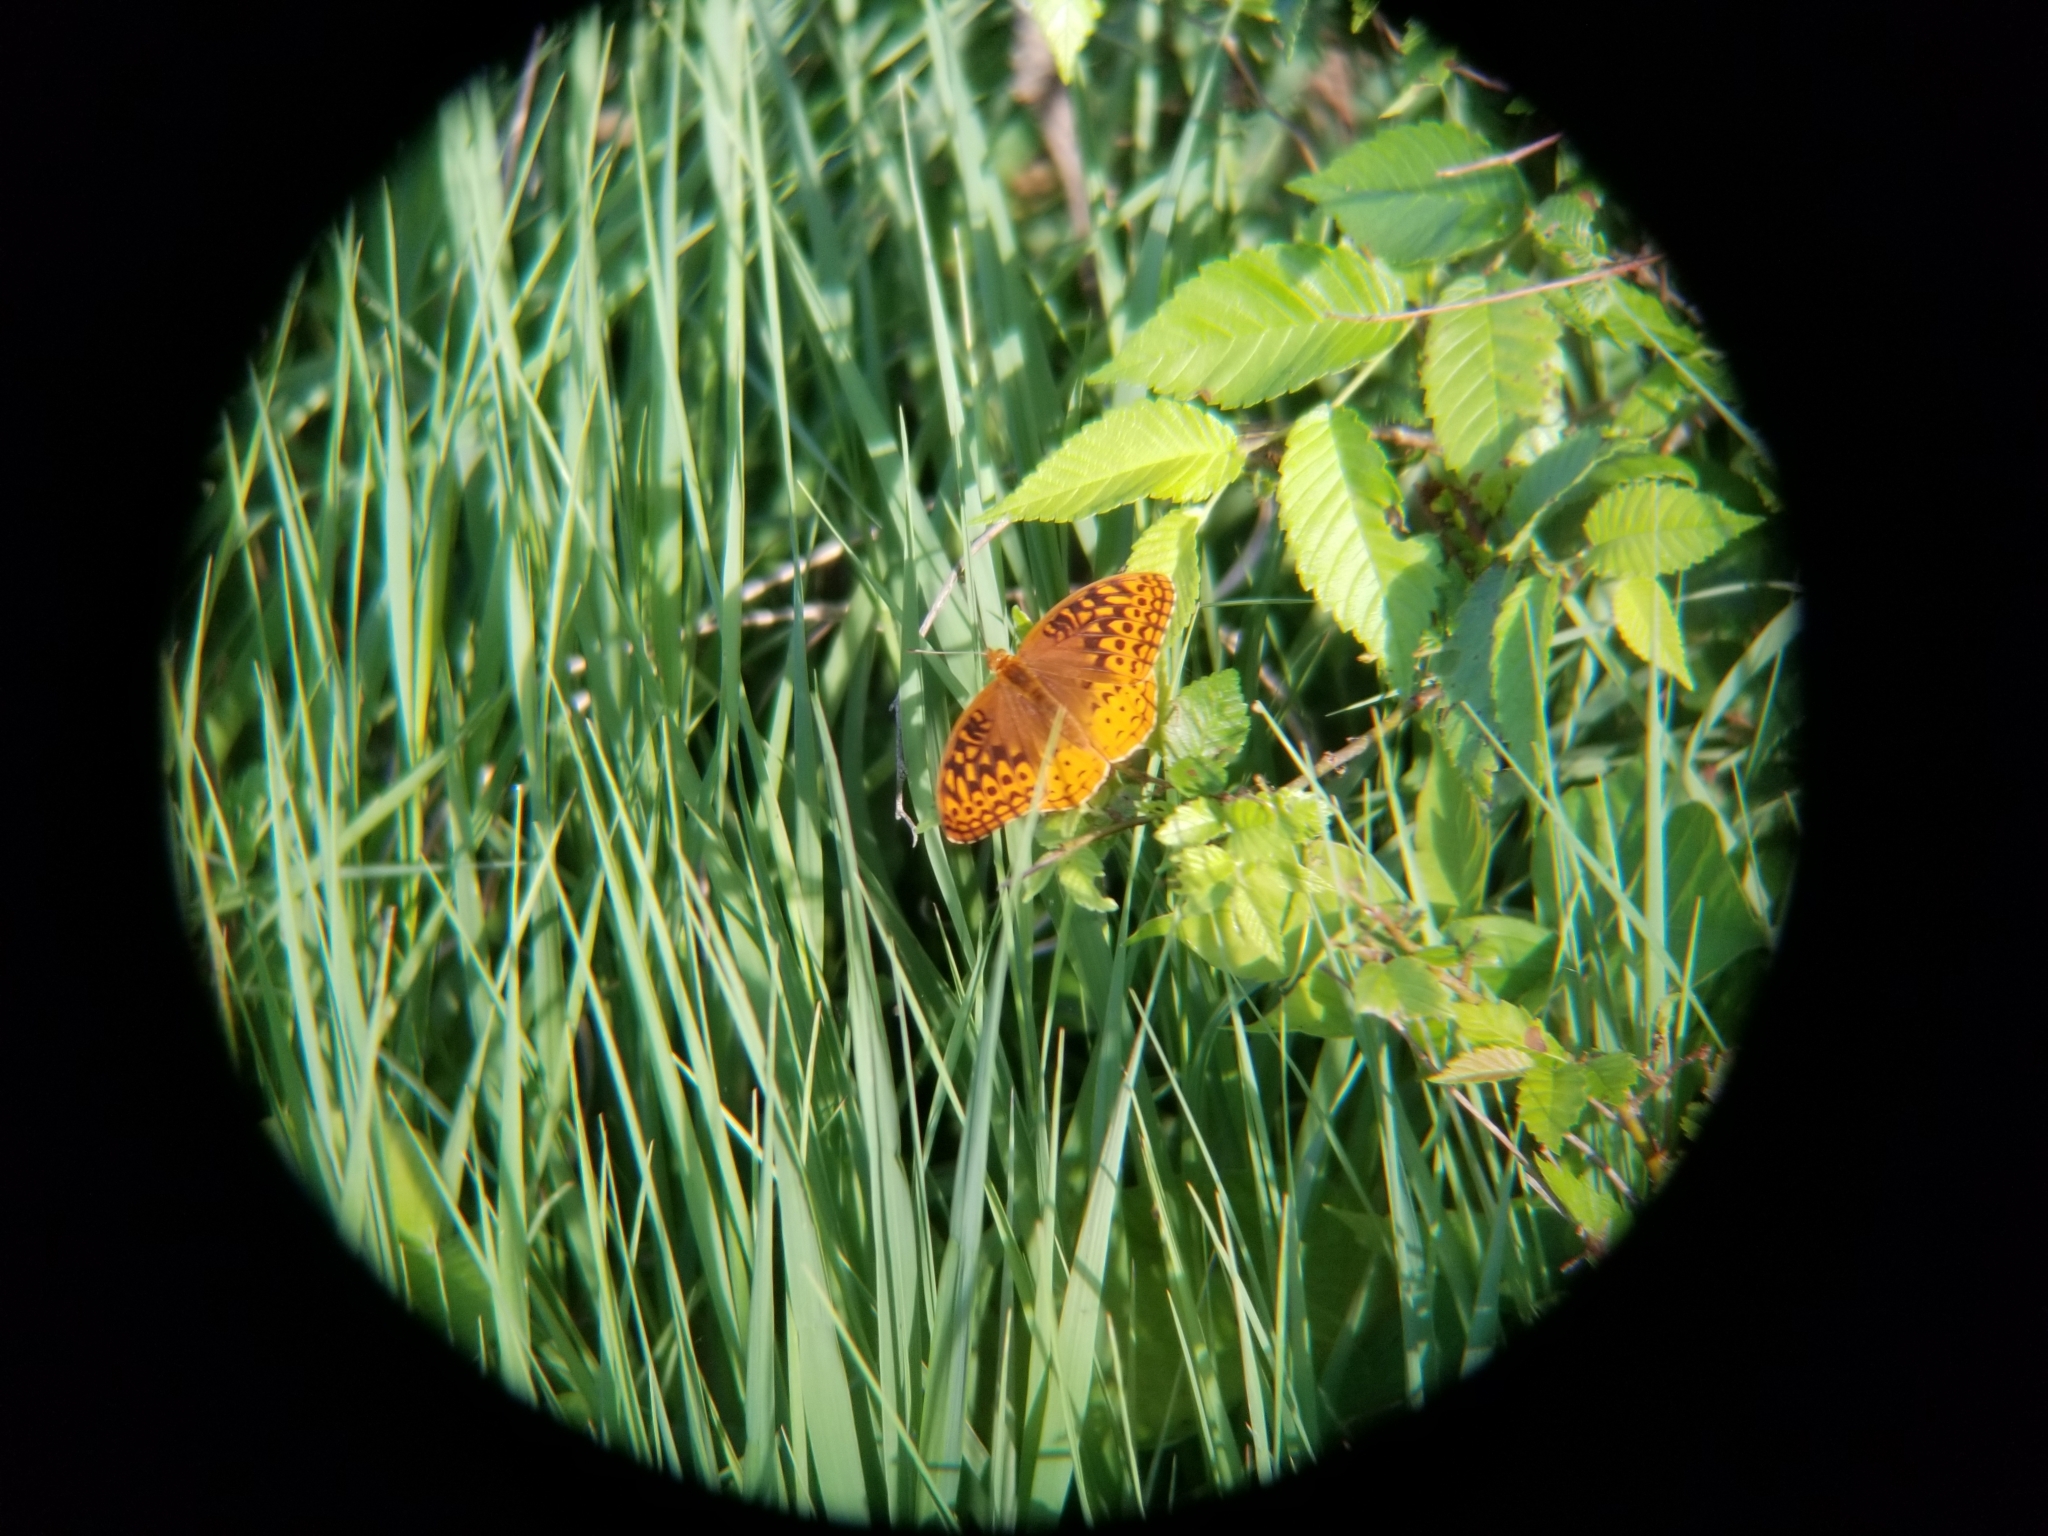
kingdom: Animalia
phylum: Arthropoda
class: Insecta
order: Lepidoptera
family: Nymphalidae
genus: Speyeria
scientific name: Speyeria cybele
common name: Great spangled fritillary
